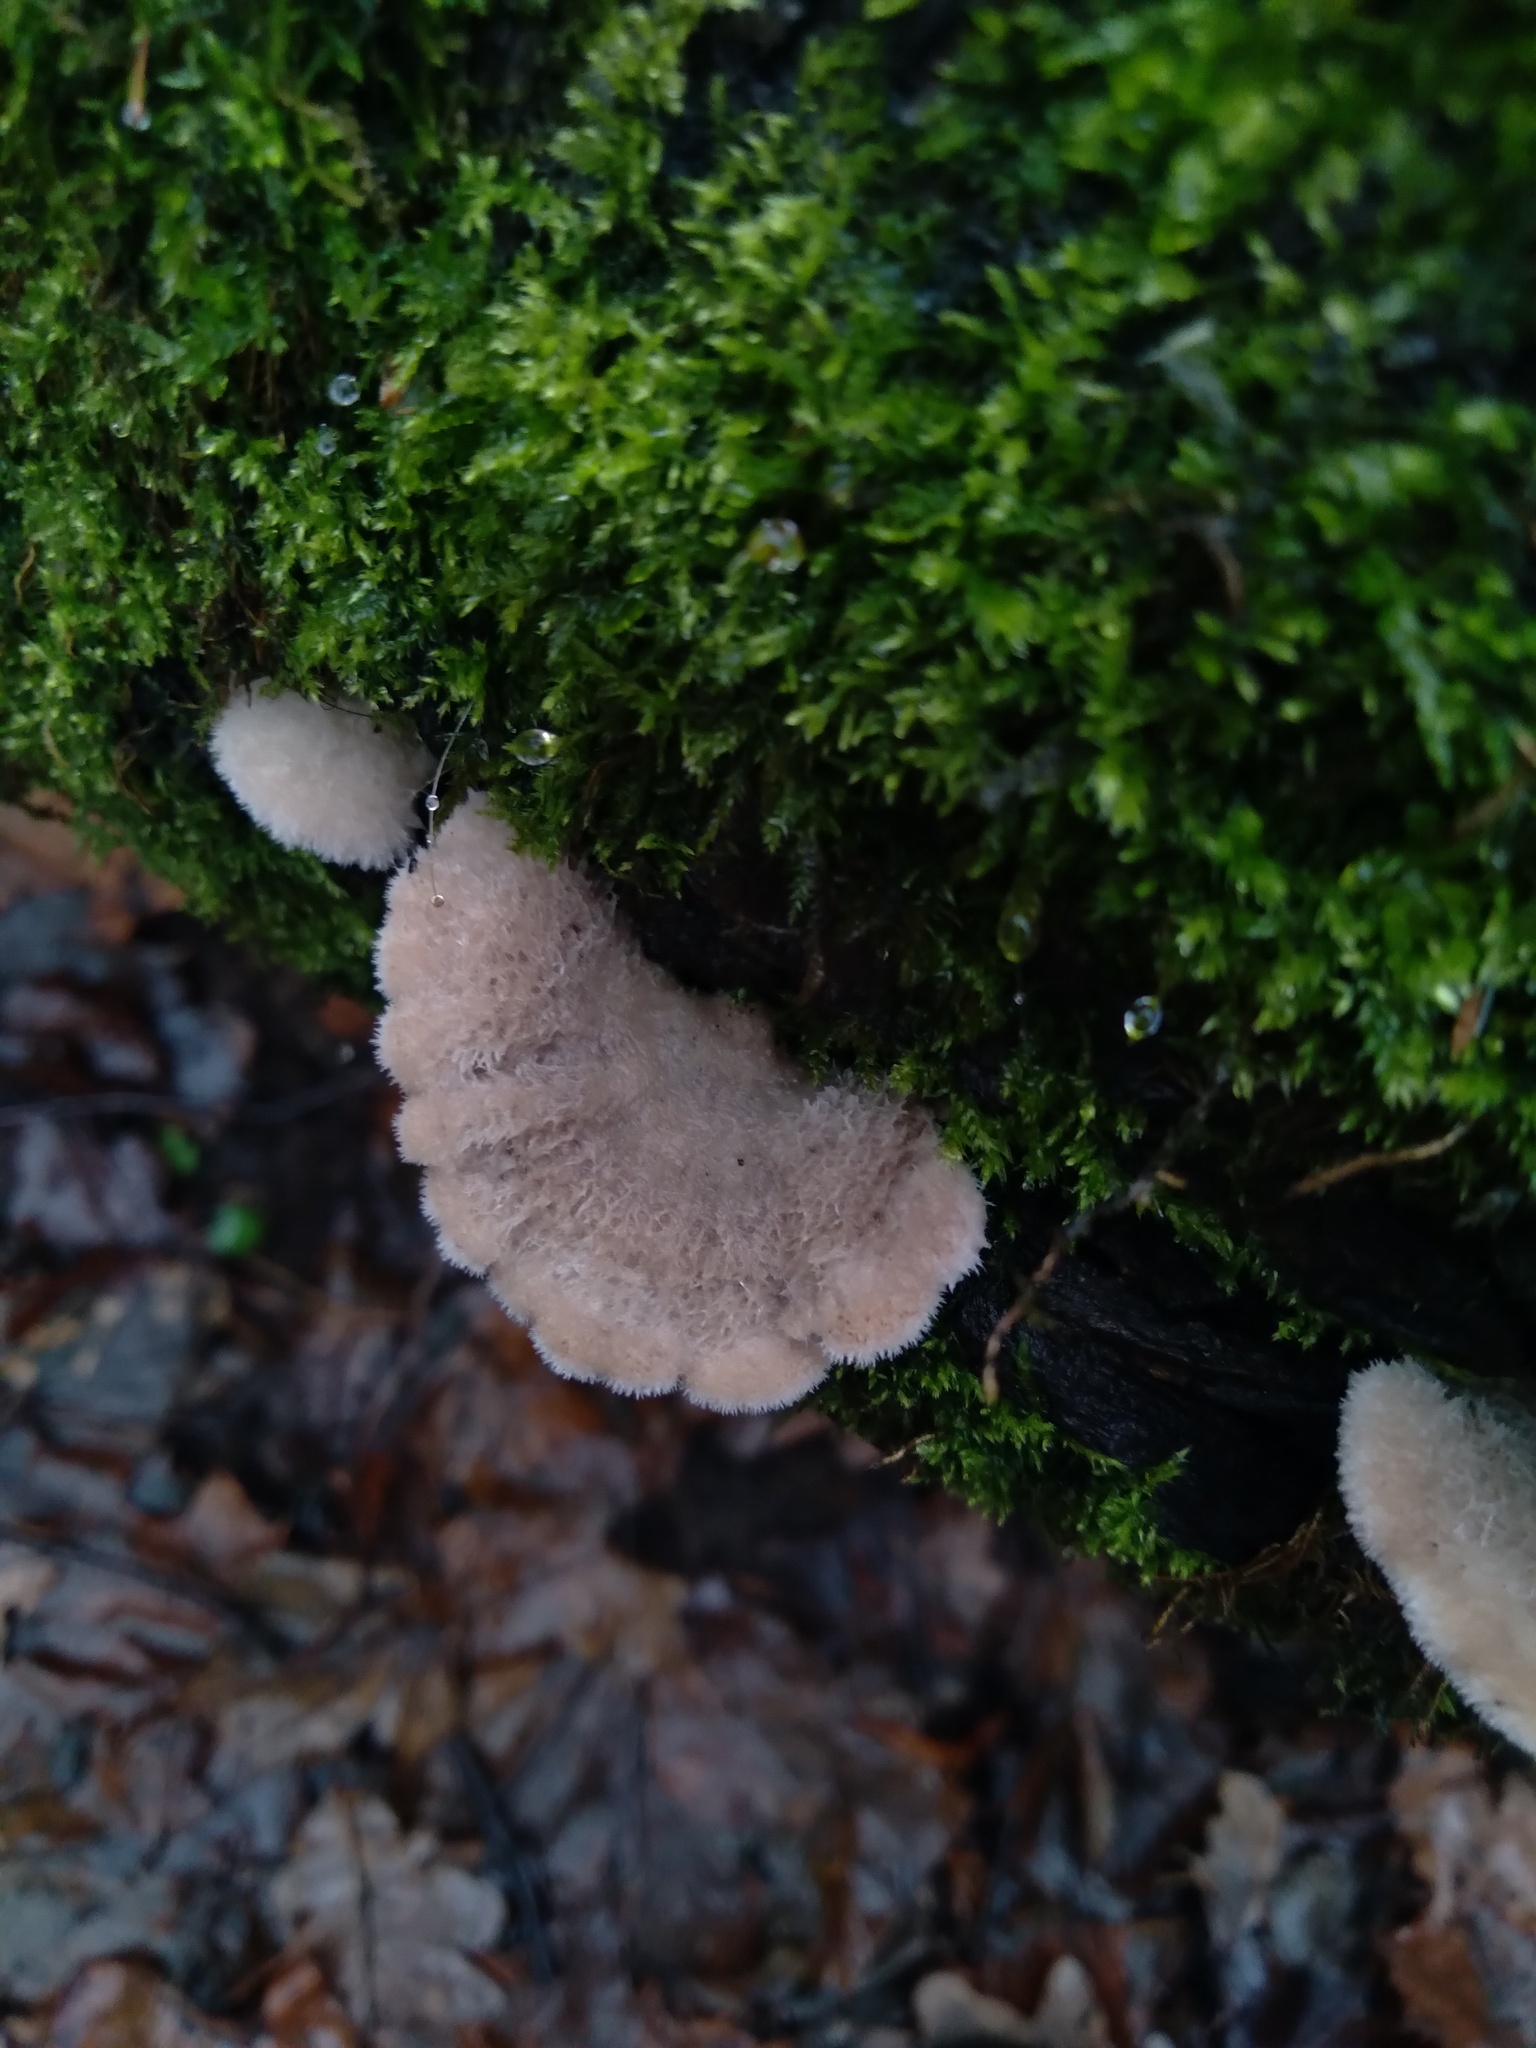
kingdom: Fungi
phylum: Basidiomycota
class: Agaricomycetes
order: Agaricales
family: Schizophyllaceae
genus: Schizophyllum
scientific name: Schizophyllum commune
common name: Common porecrust
